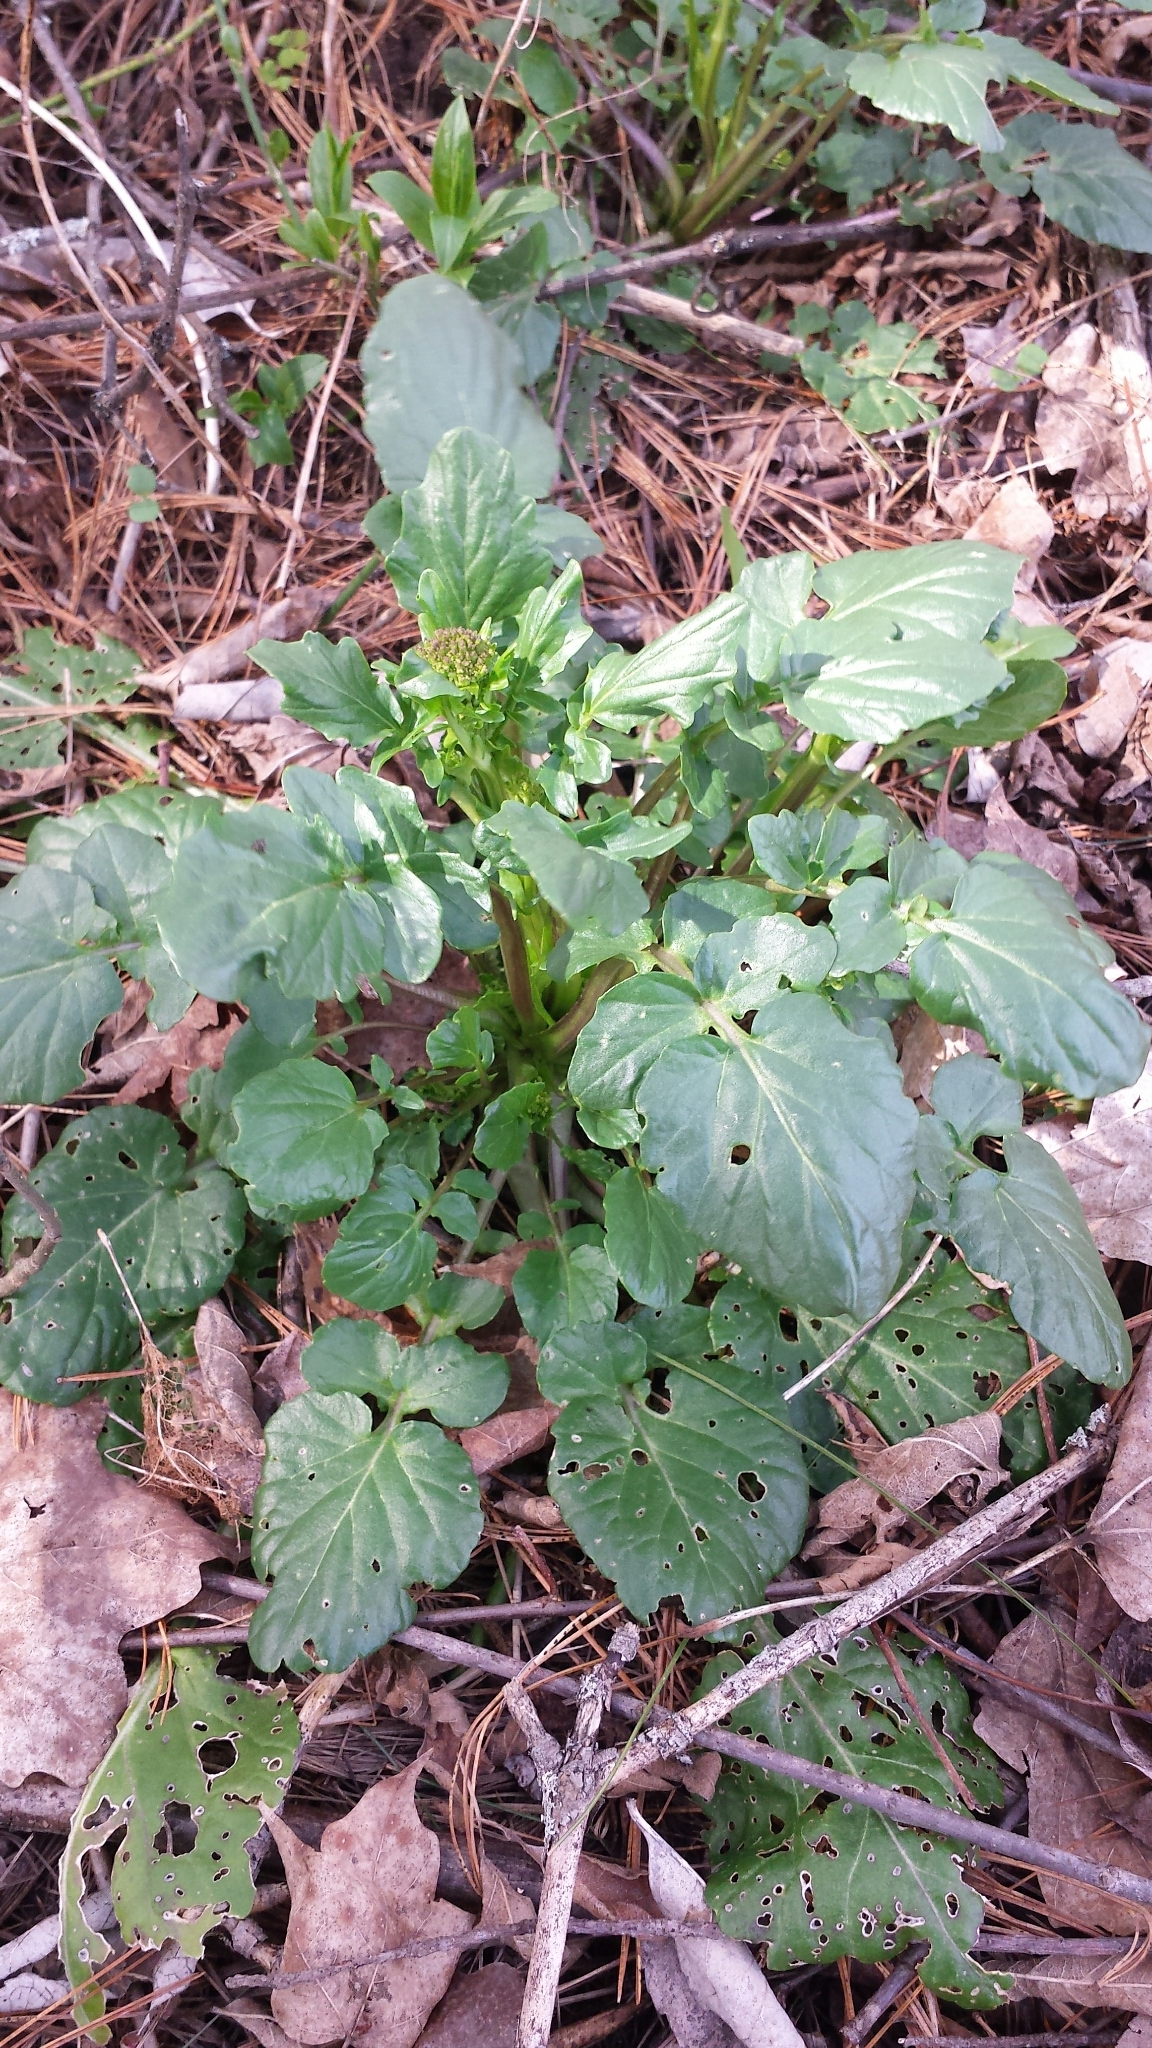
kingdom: Plantae
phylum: Tracheophyta
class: Magnoliopsida
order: Brassicales
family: Brassicaceae
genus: Barbarea
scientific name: Barbarea vulgaris
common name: Cressy-greens
